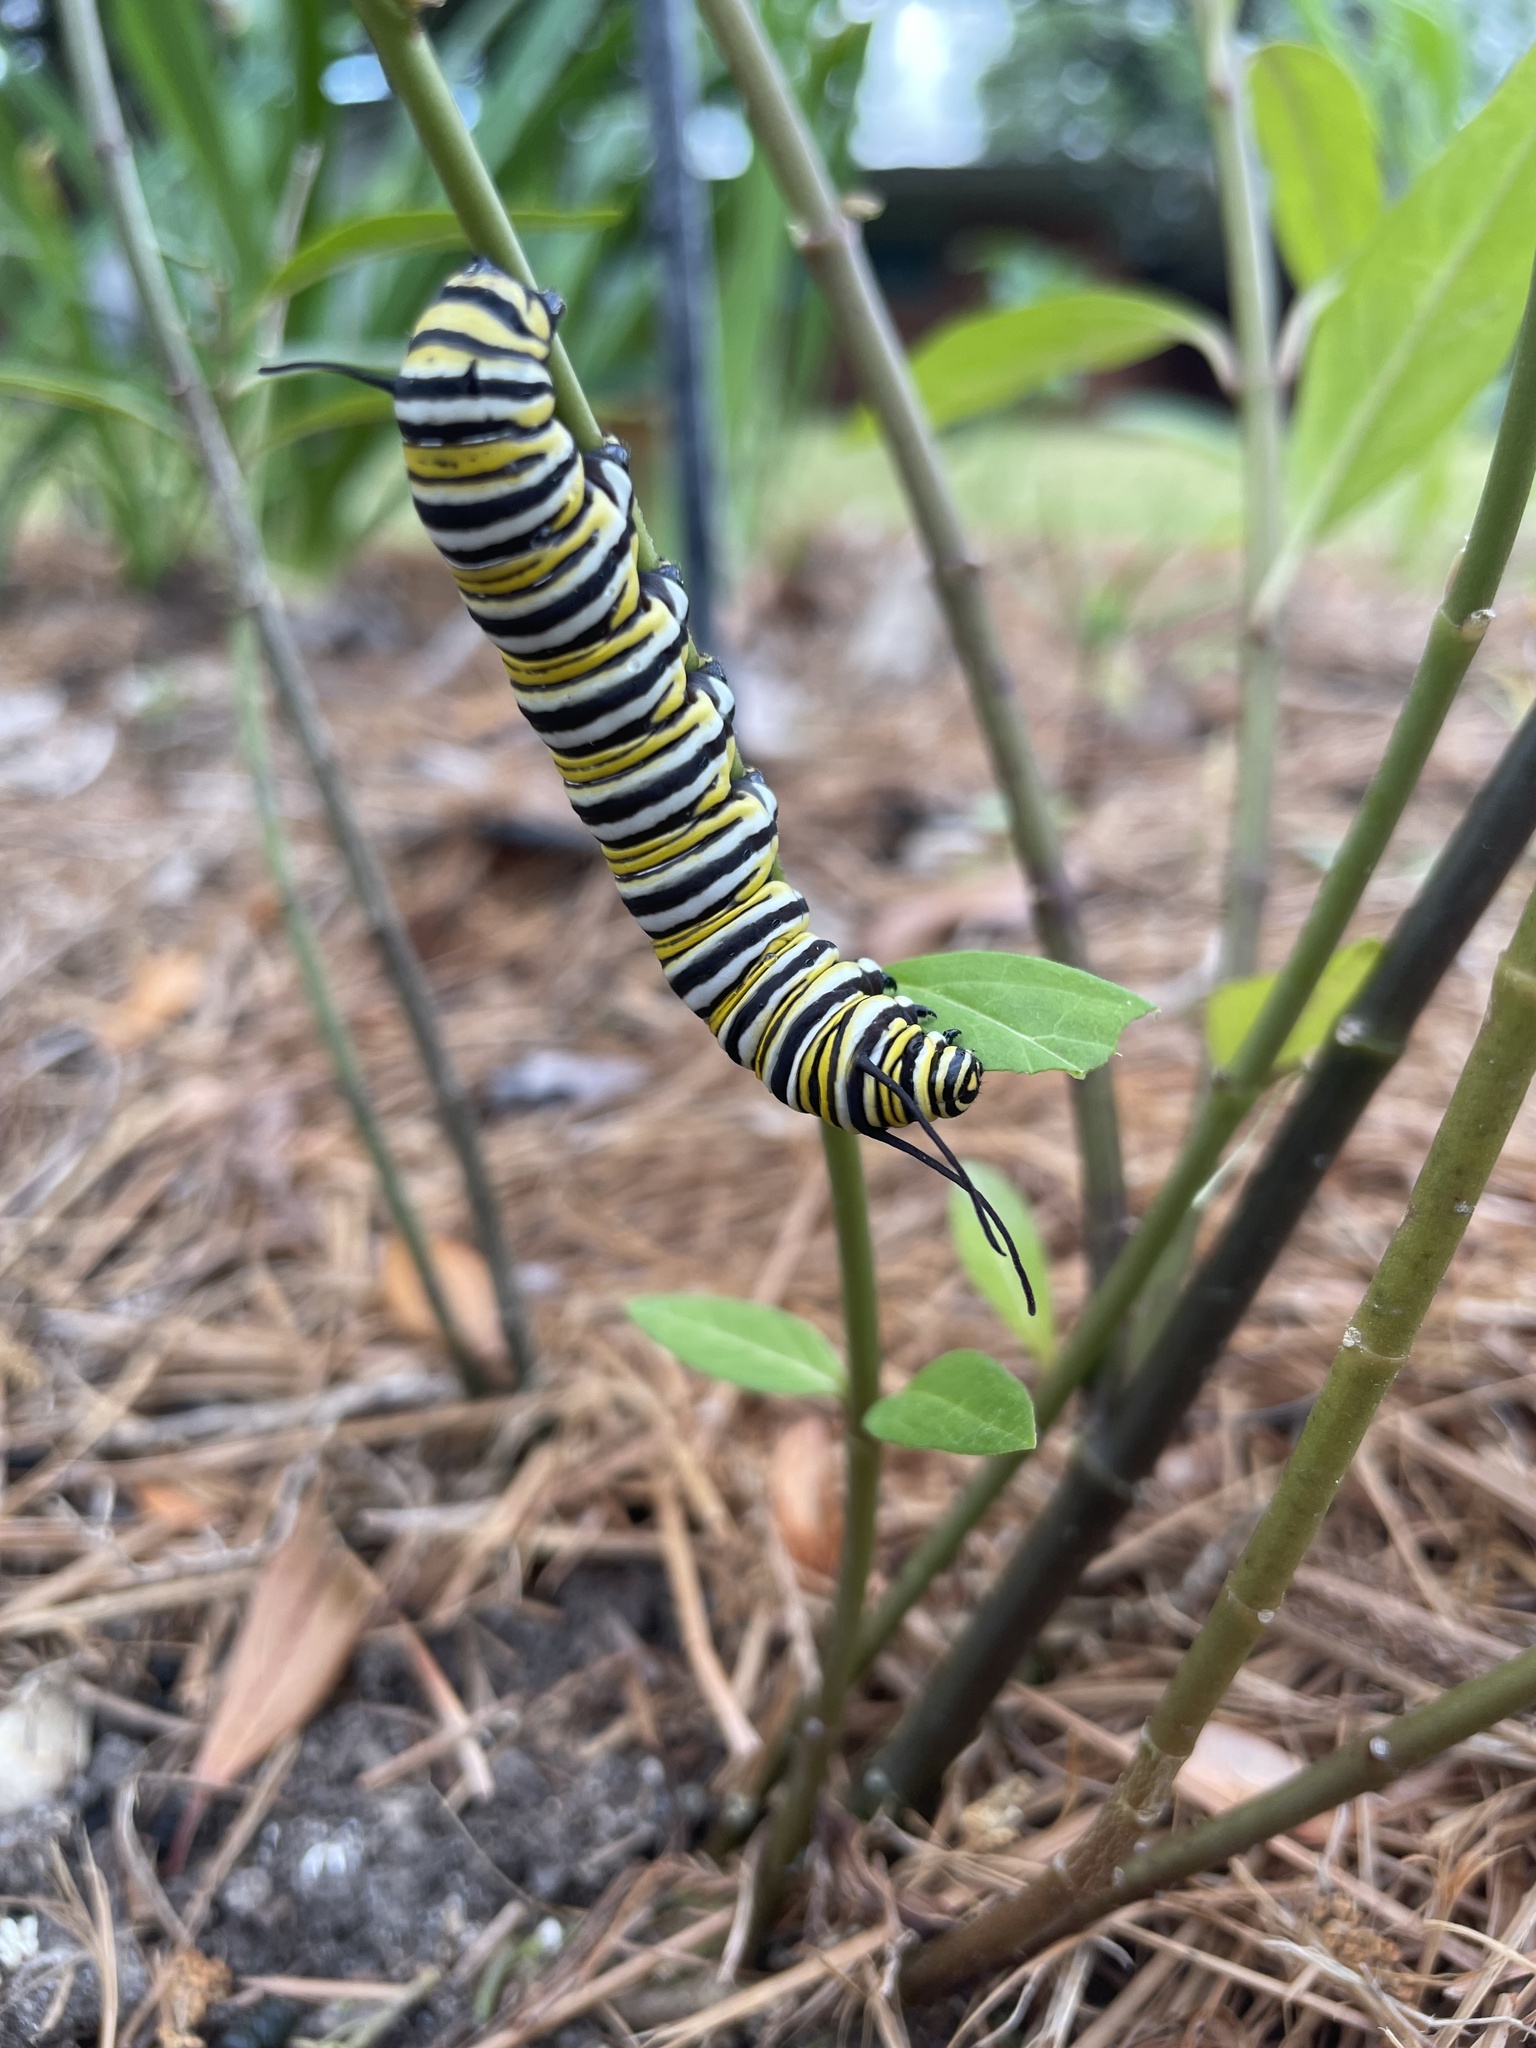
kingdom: Animalia
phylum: Arthropoda
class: Insecta
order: Lepidoptera
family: Nymphalidae
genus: Danaus
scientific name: Danaus plexippus
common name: Monarch
